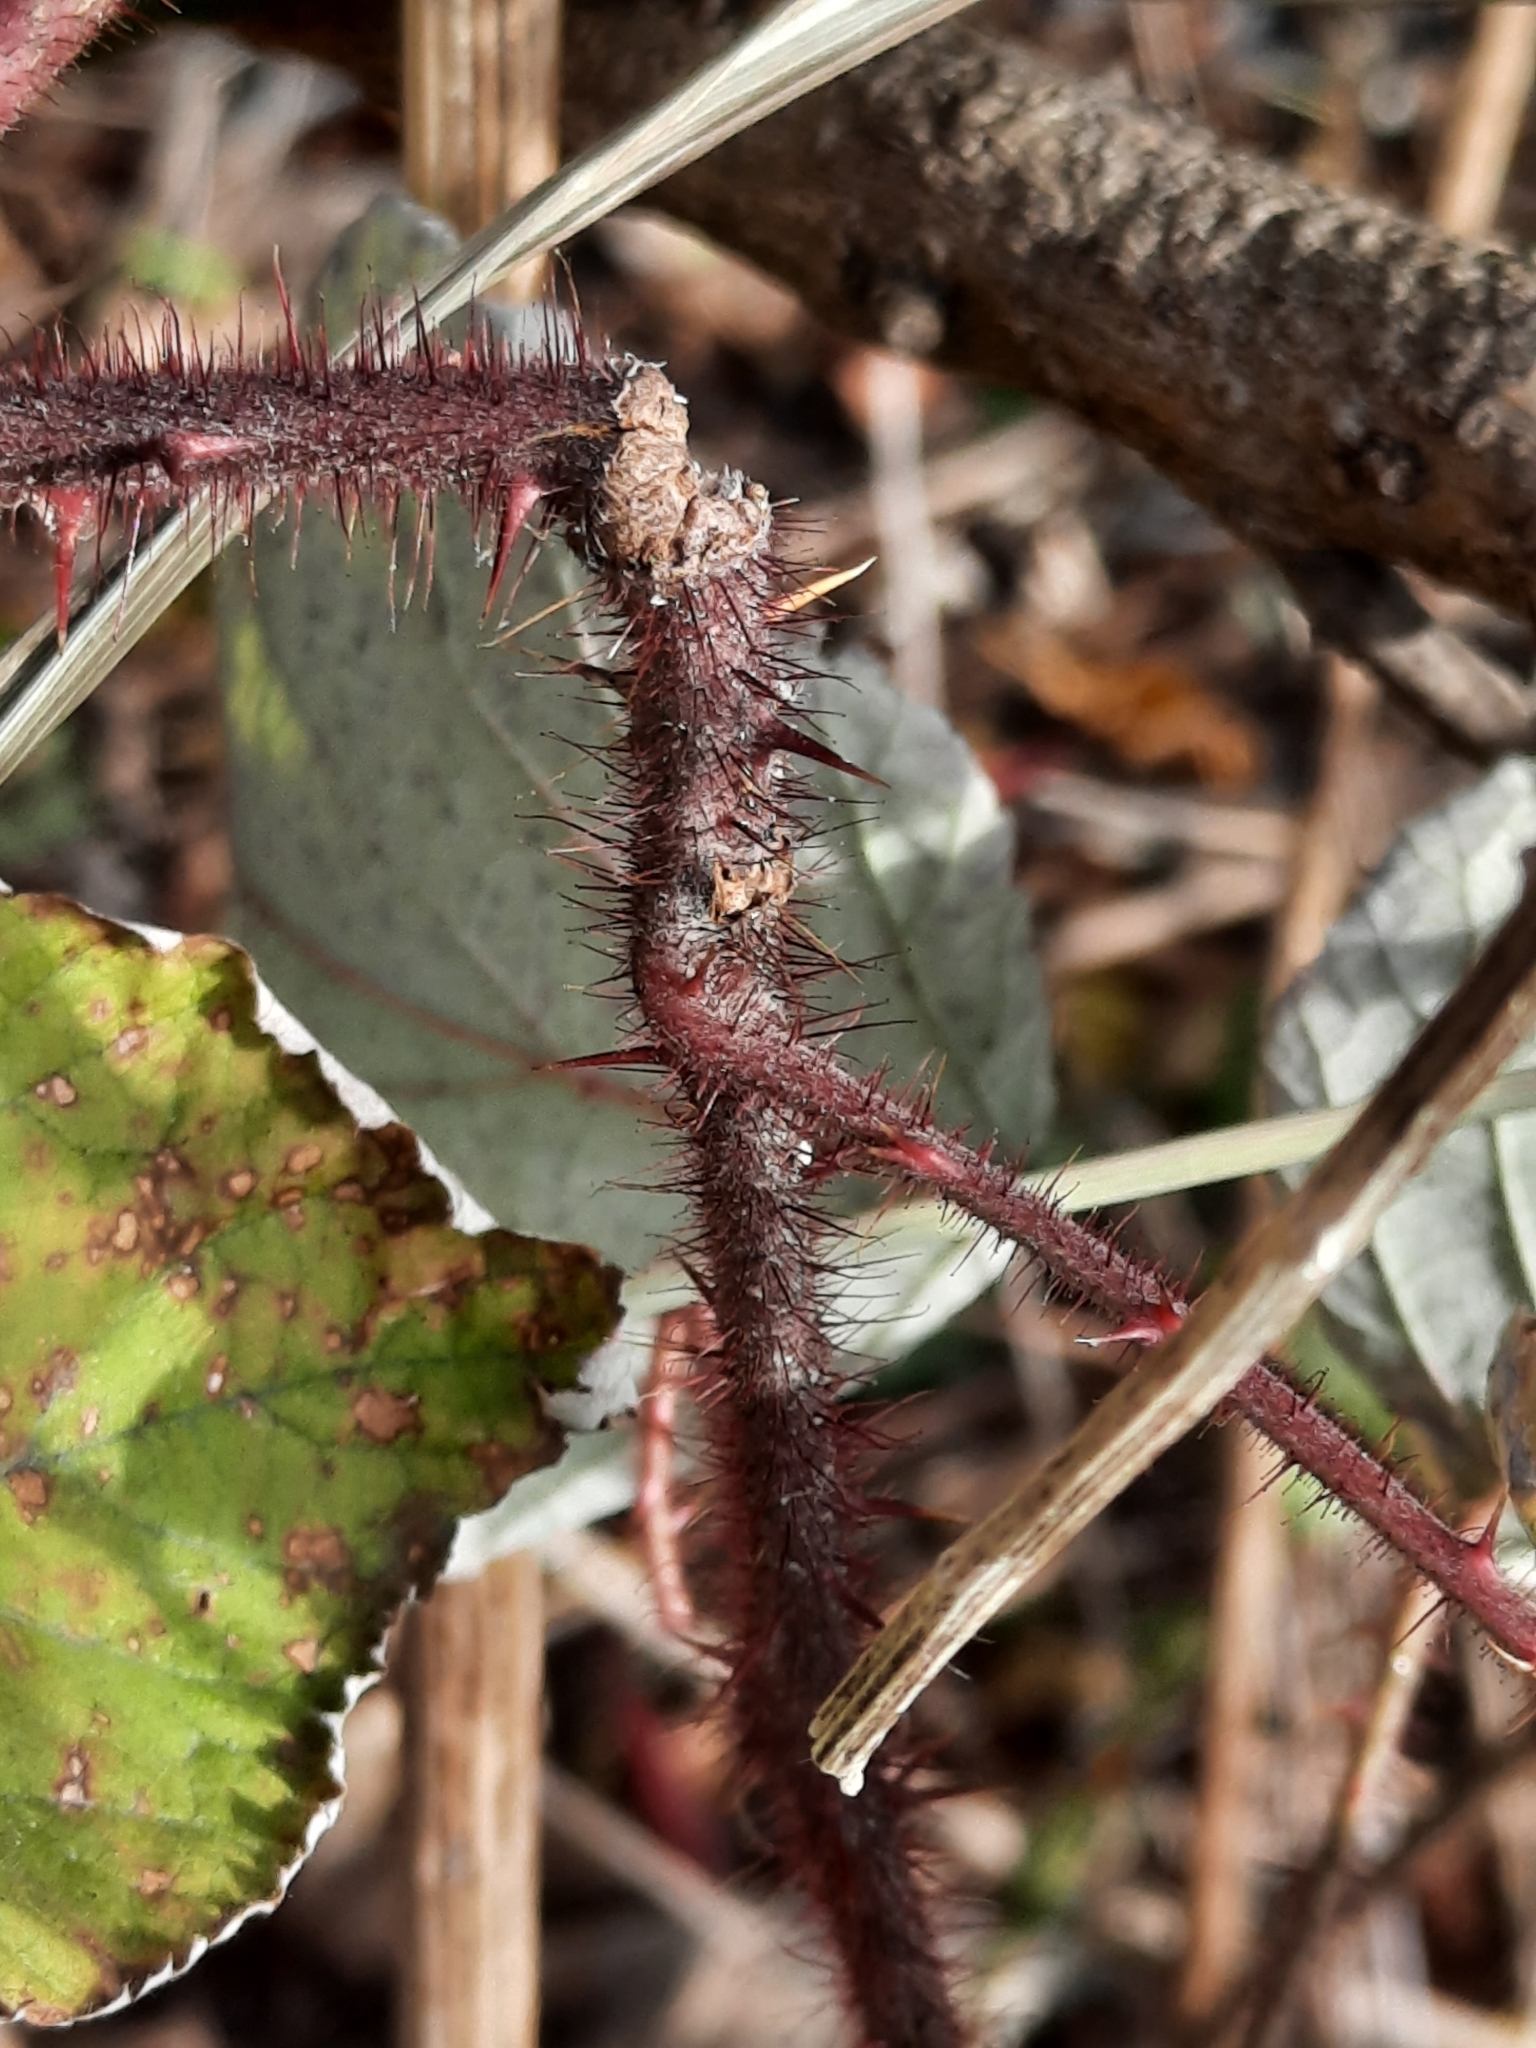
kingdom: Plantae
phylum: Tracheophyta
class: Magnoliopsida
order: Rosales
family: Rosaceae
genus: Rubus
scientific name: Rubus phoenicolasius
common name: Japanese wineberry
